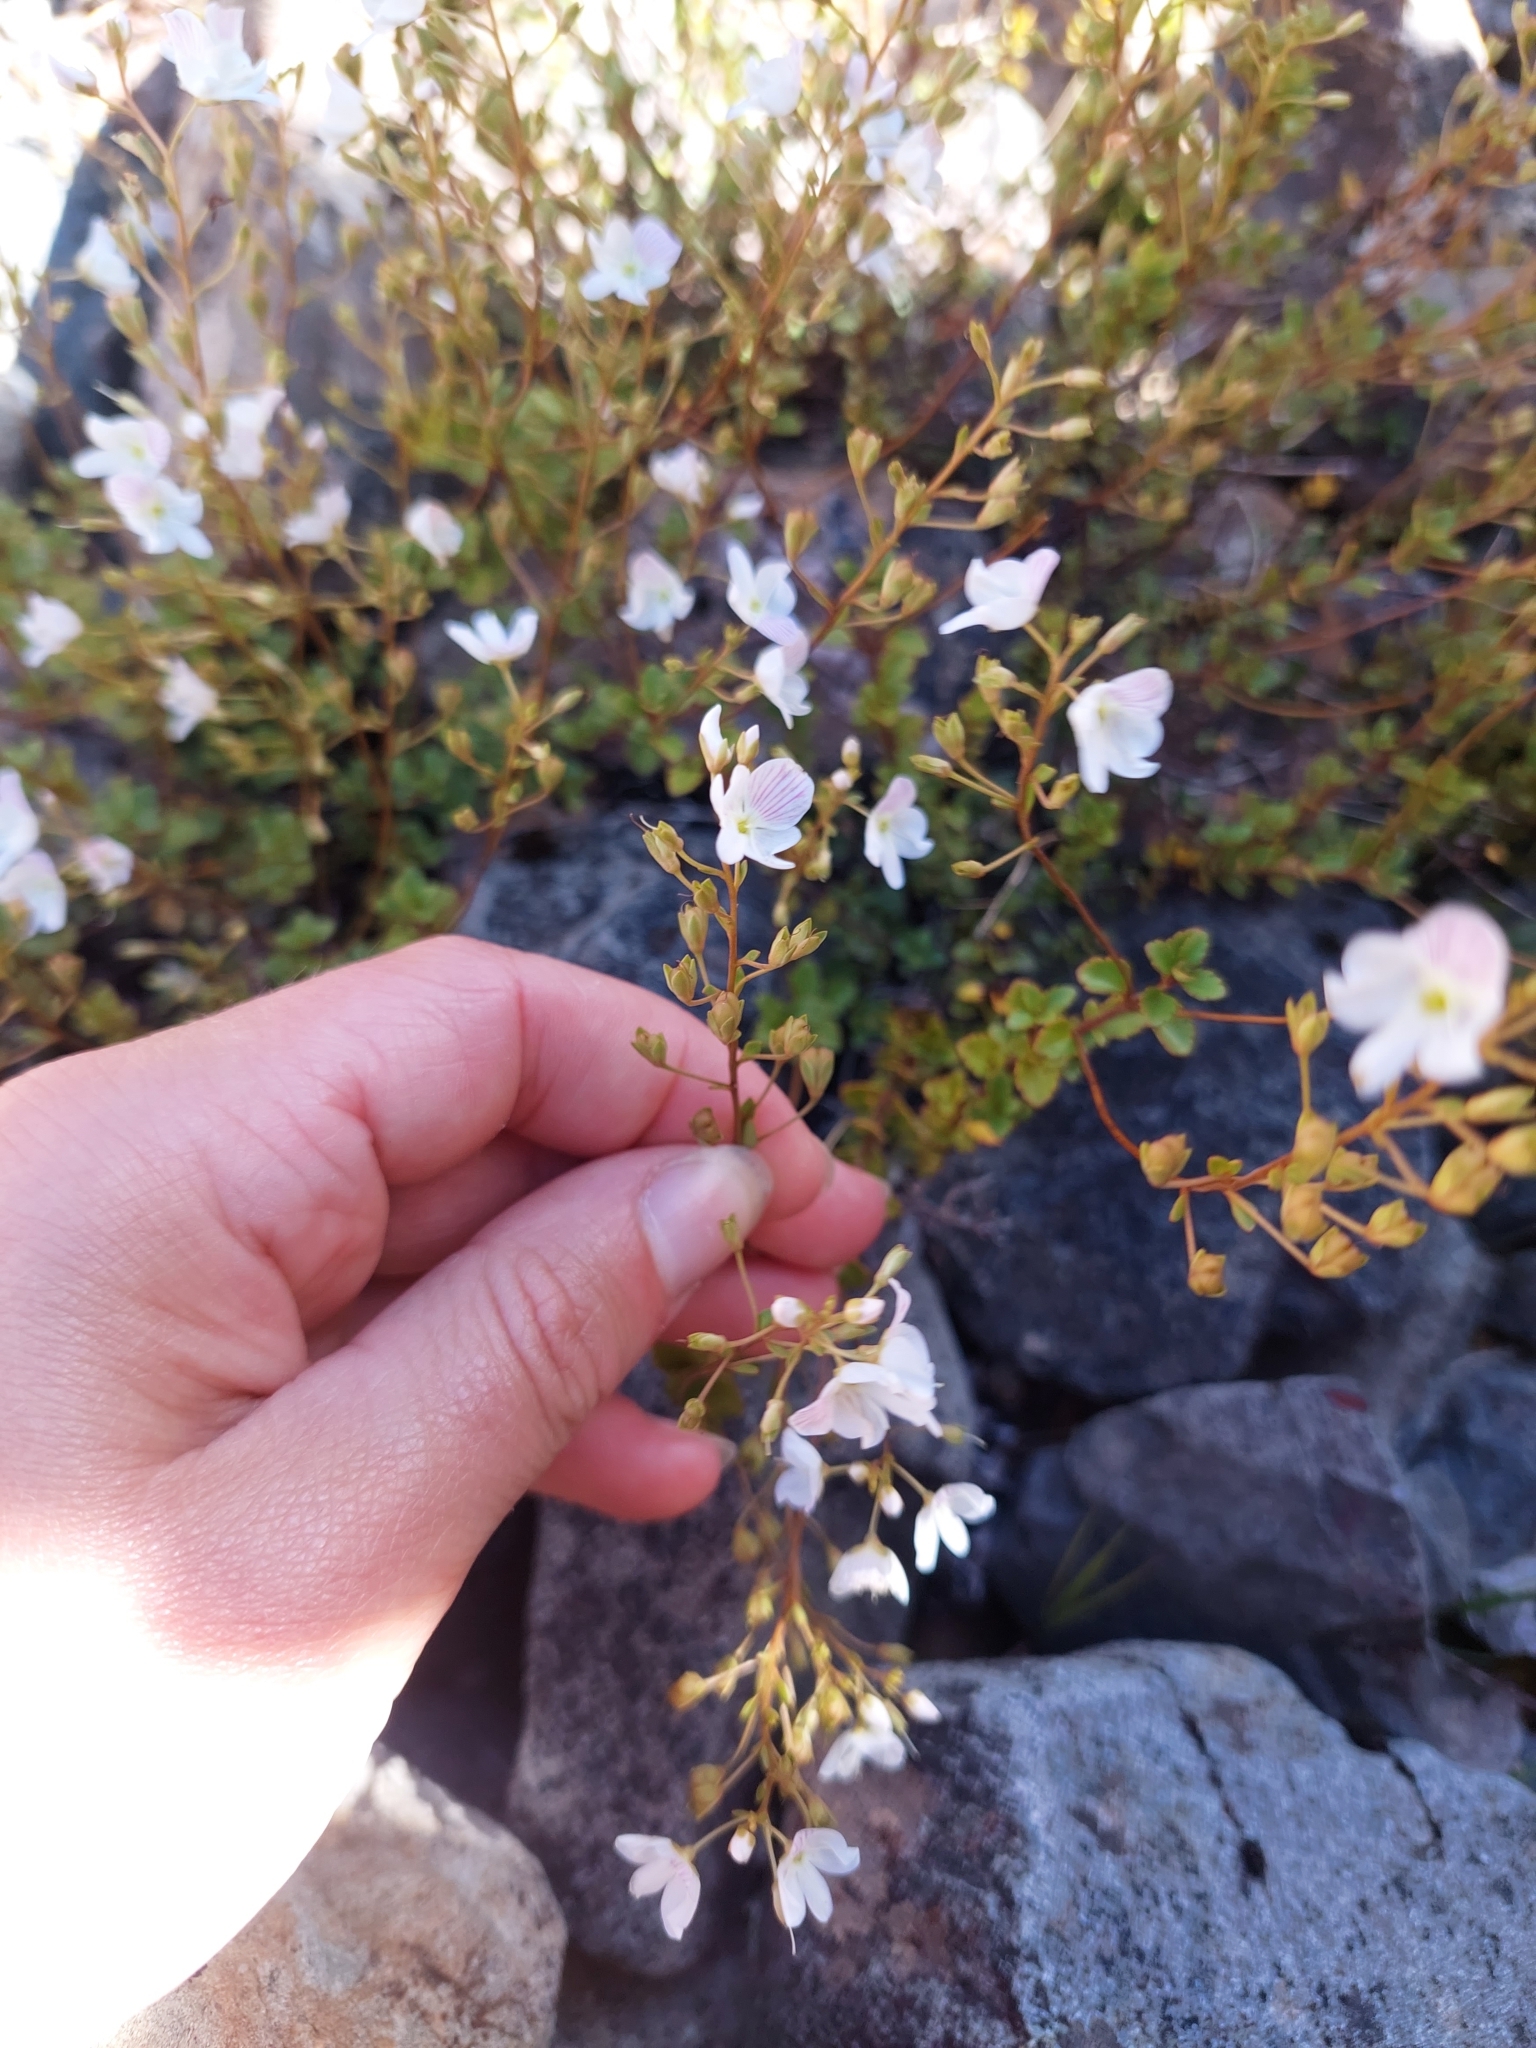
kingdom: Plantae
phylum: Tracheophyta
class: Magnoliopsida
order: Lamiales
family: Plantaginaceae
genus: Veronica
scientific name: Veronica lyallii
